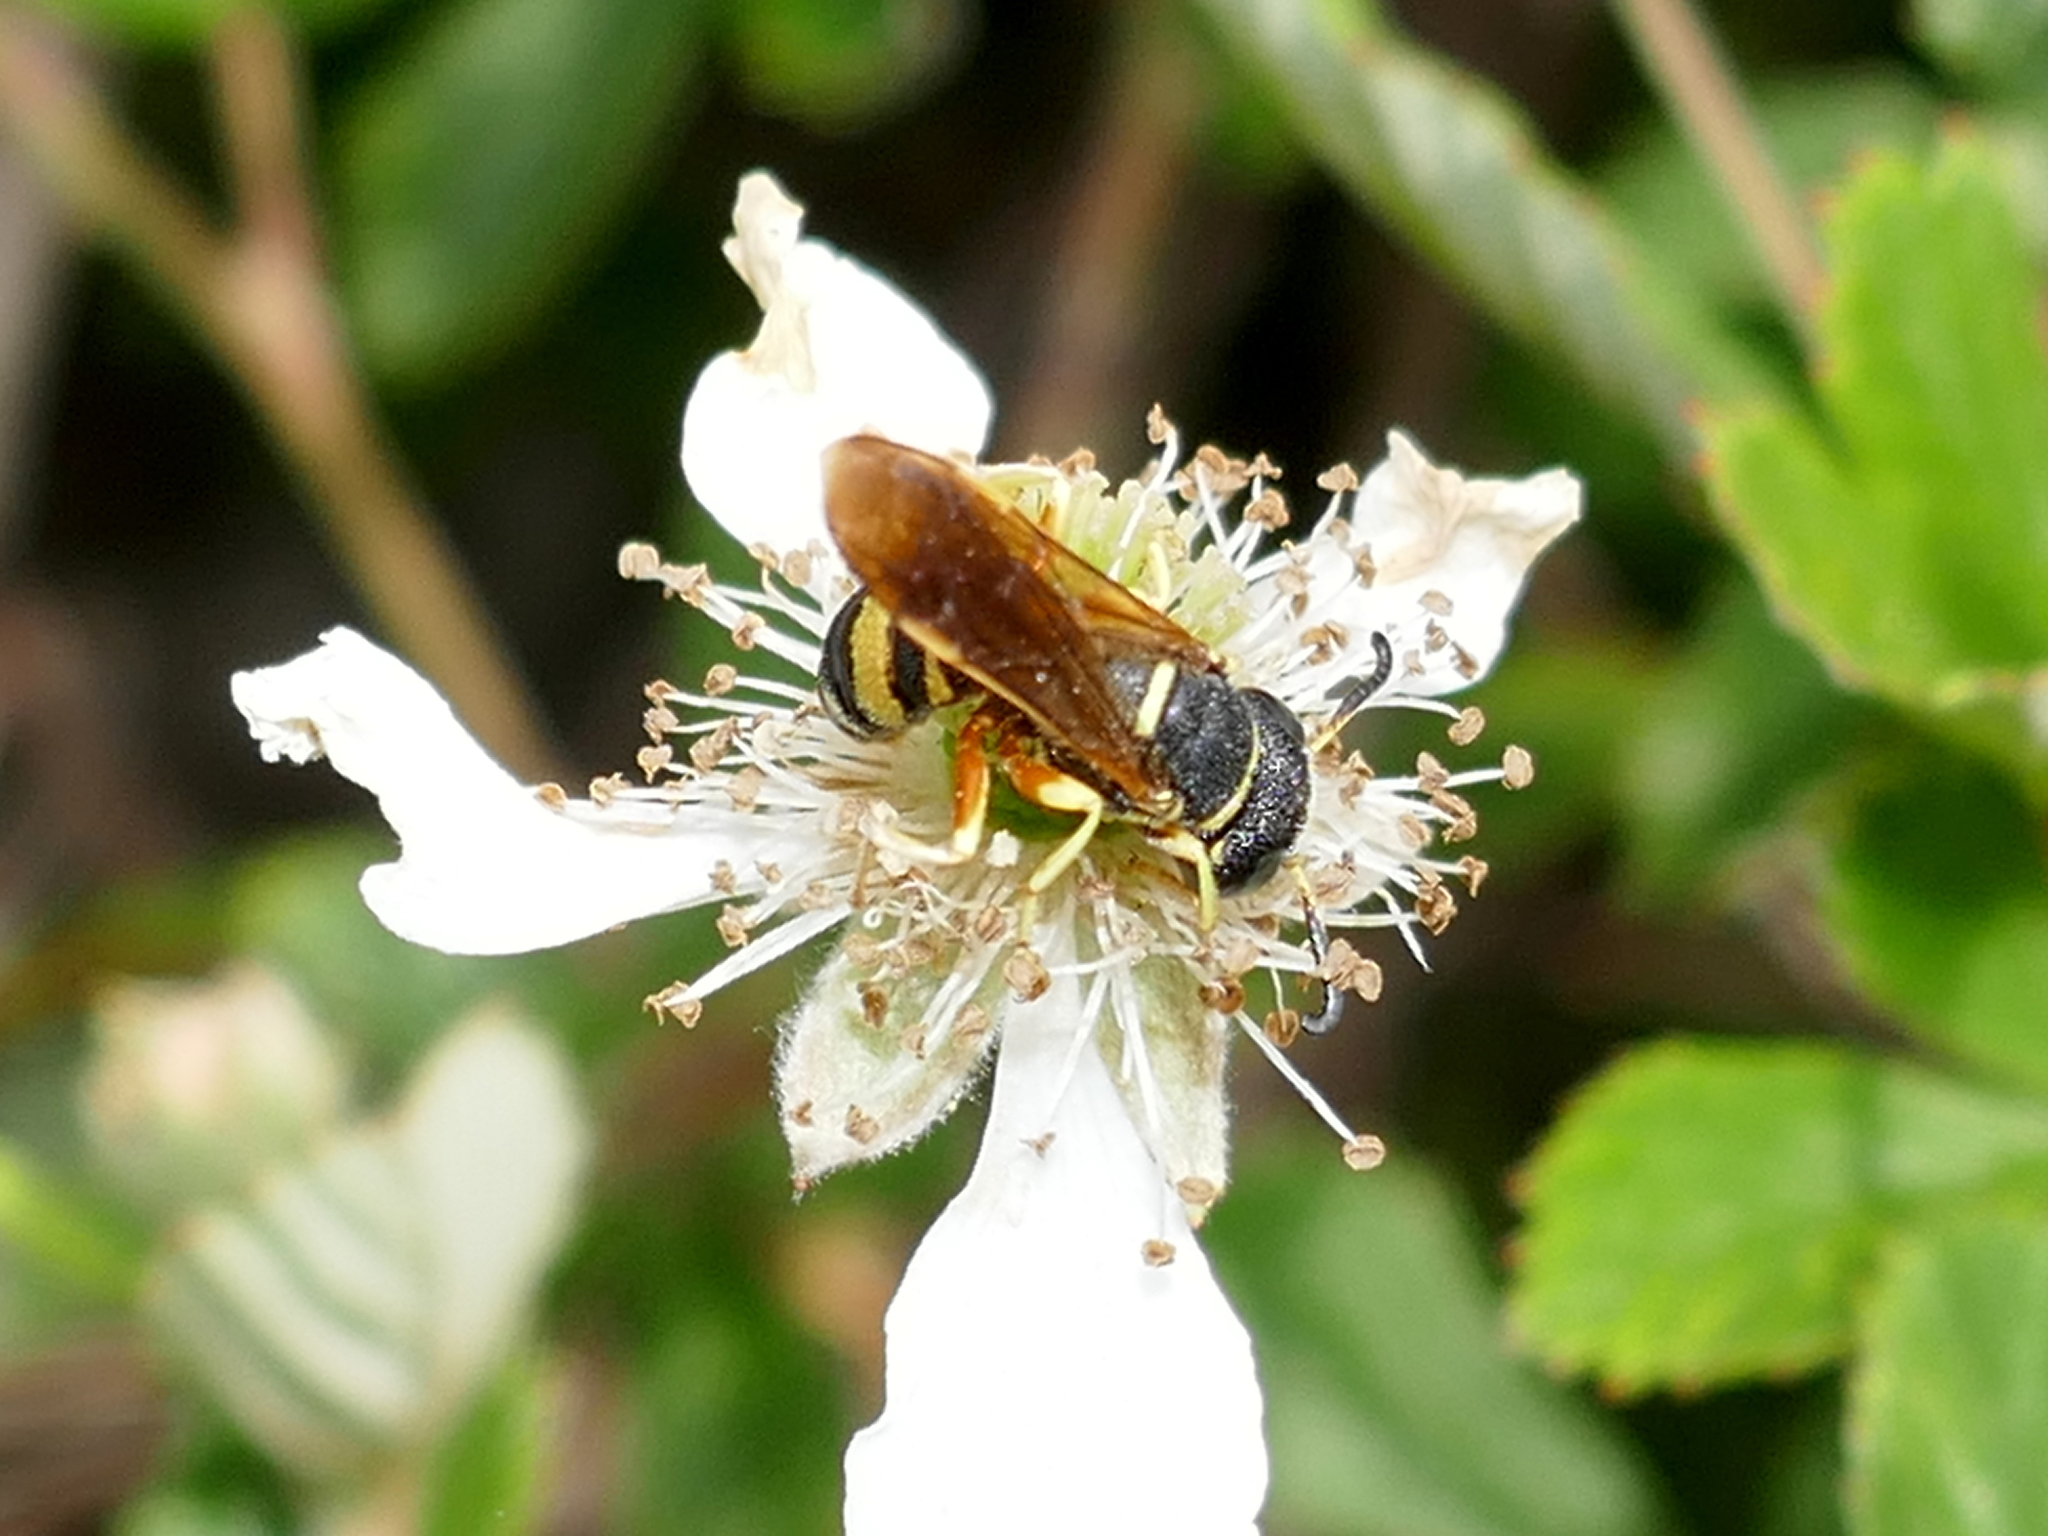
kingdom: Animalia
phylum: Arthropoda
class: Insecta
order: Hymenoptera
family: Crabronidae
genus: Philanthus
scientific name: Philanthus ventilabris
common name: Bee-killer wasp
